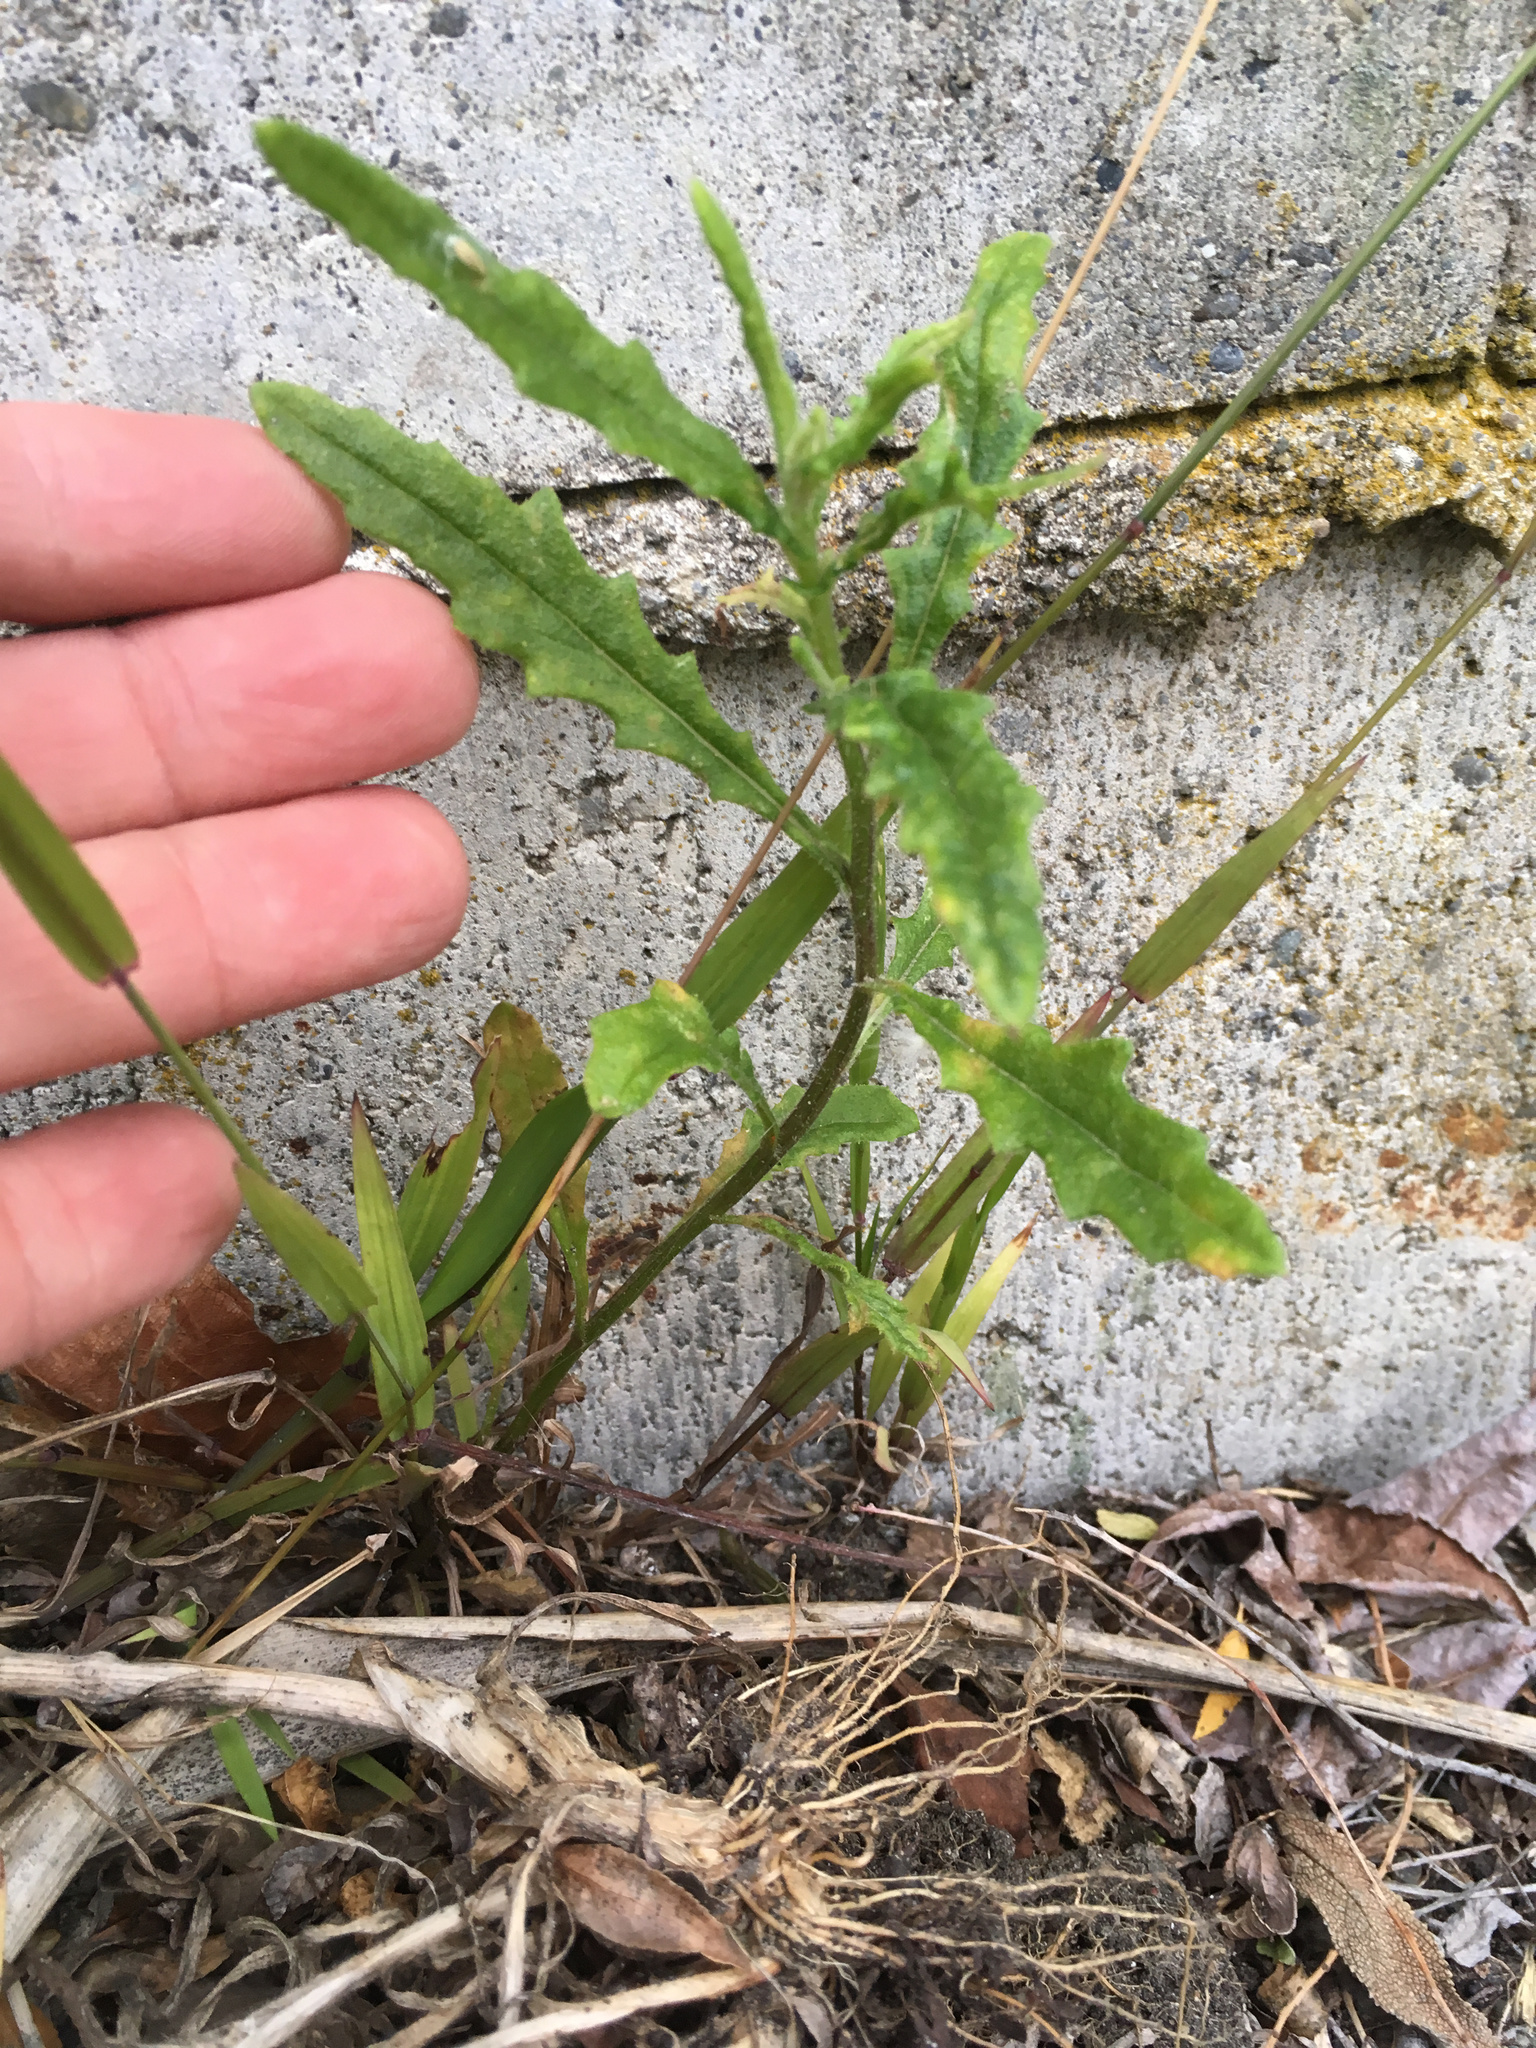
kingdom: Plantae
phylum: Tracheophyta
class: Magnoliopsida
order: Asterales
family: Asteraceae
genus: Senecio
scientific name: Senecio hispidulus
